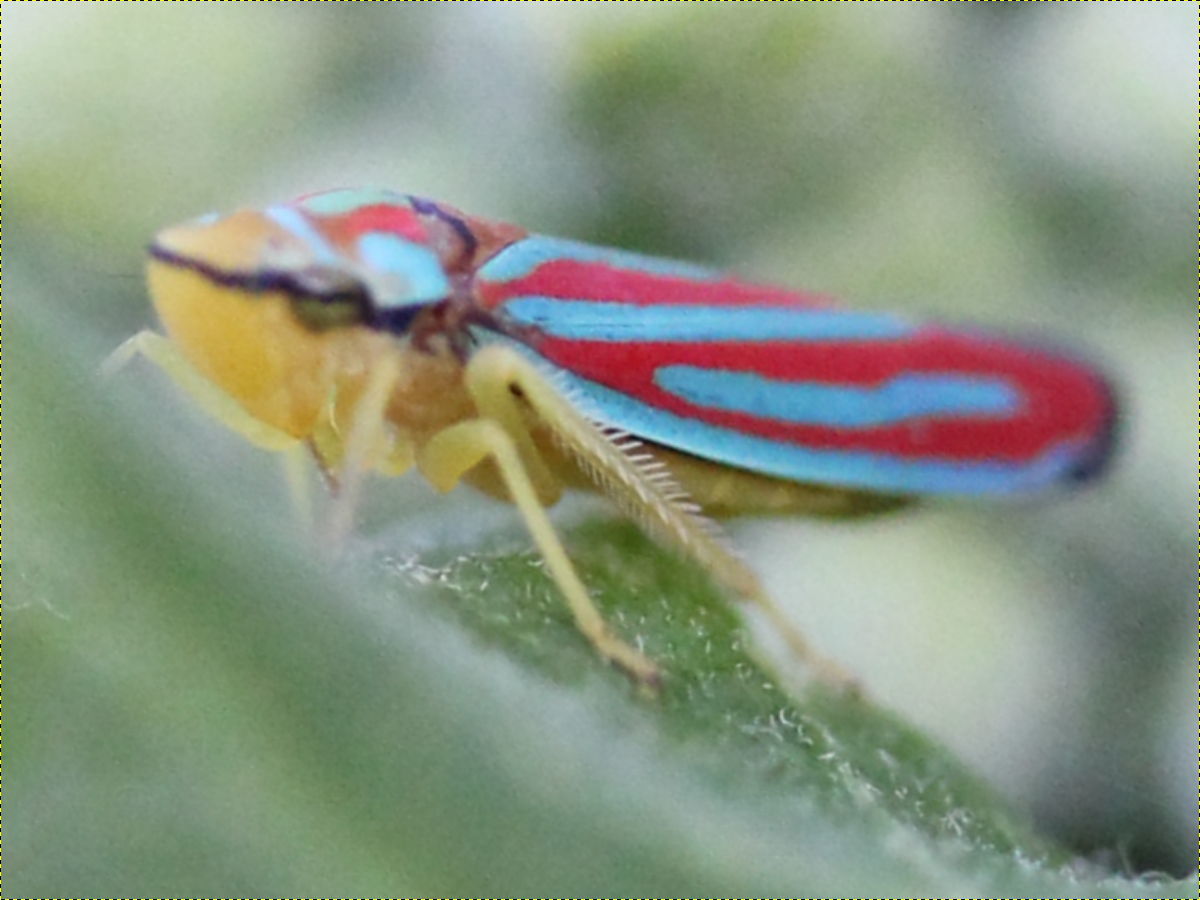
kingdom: Animalia
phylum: Arthropoda
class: Insecta
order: Hemiptera
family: Cicadellidae
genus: Graphocephala
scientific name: Graphocephala coccinea
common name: Candy-striped leafhopper
